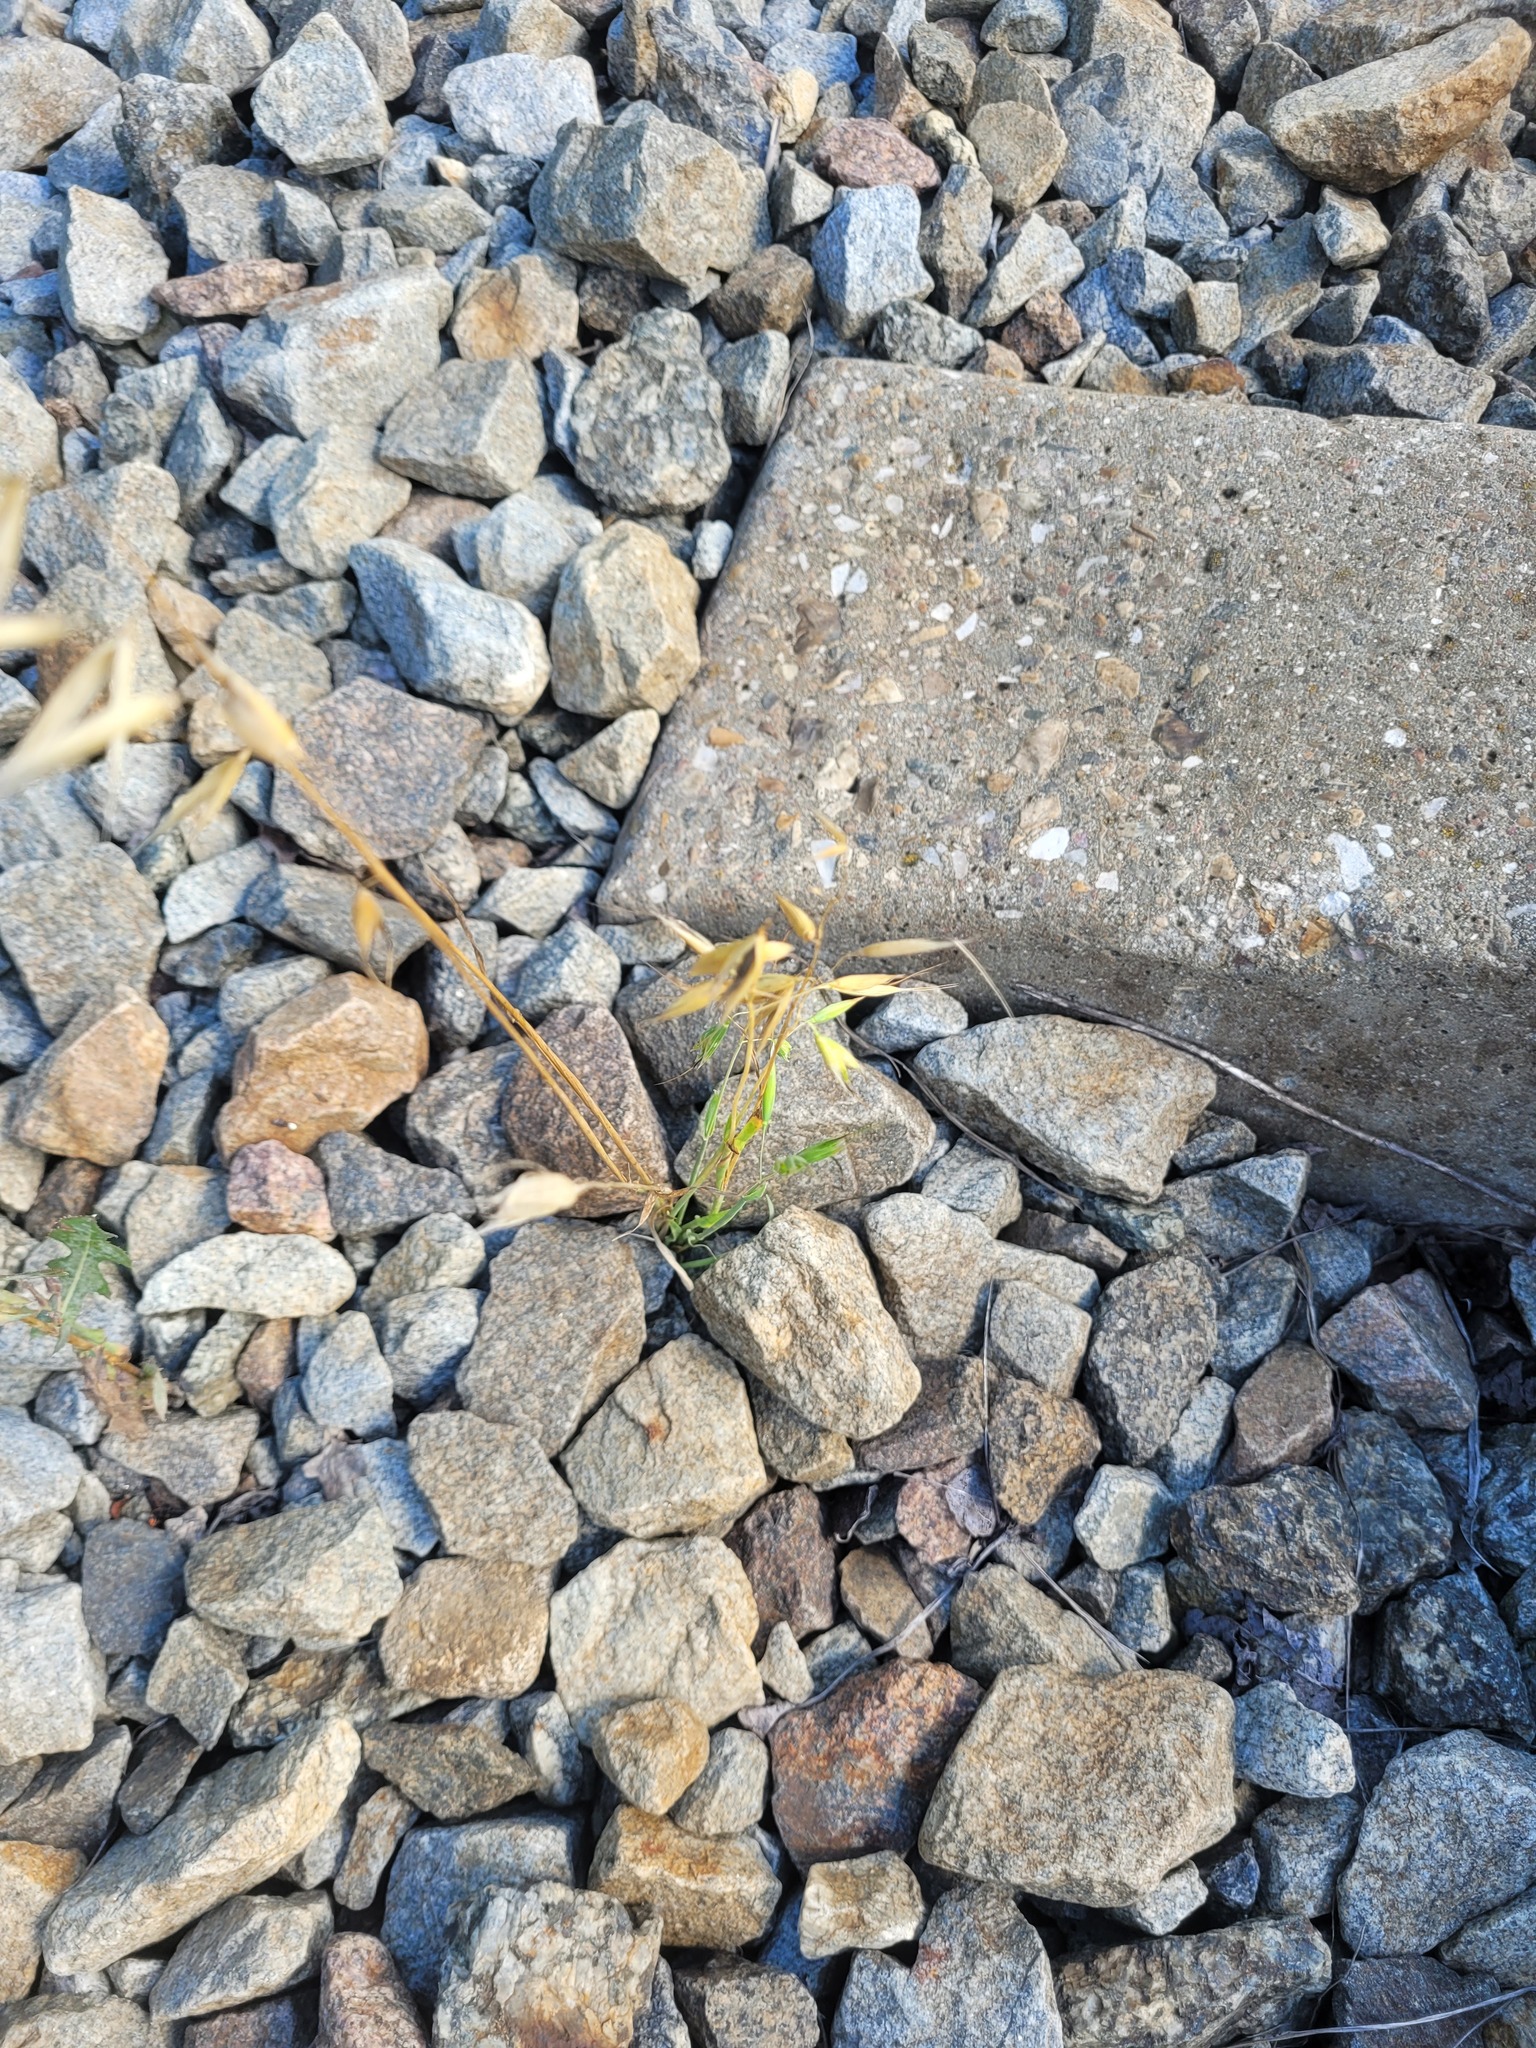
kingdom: Plantae
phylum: Tracheophyta
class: Liliopsida
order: Poales
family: Poaceae
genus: Avena
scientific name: Avena fatua
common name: Wild oat
